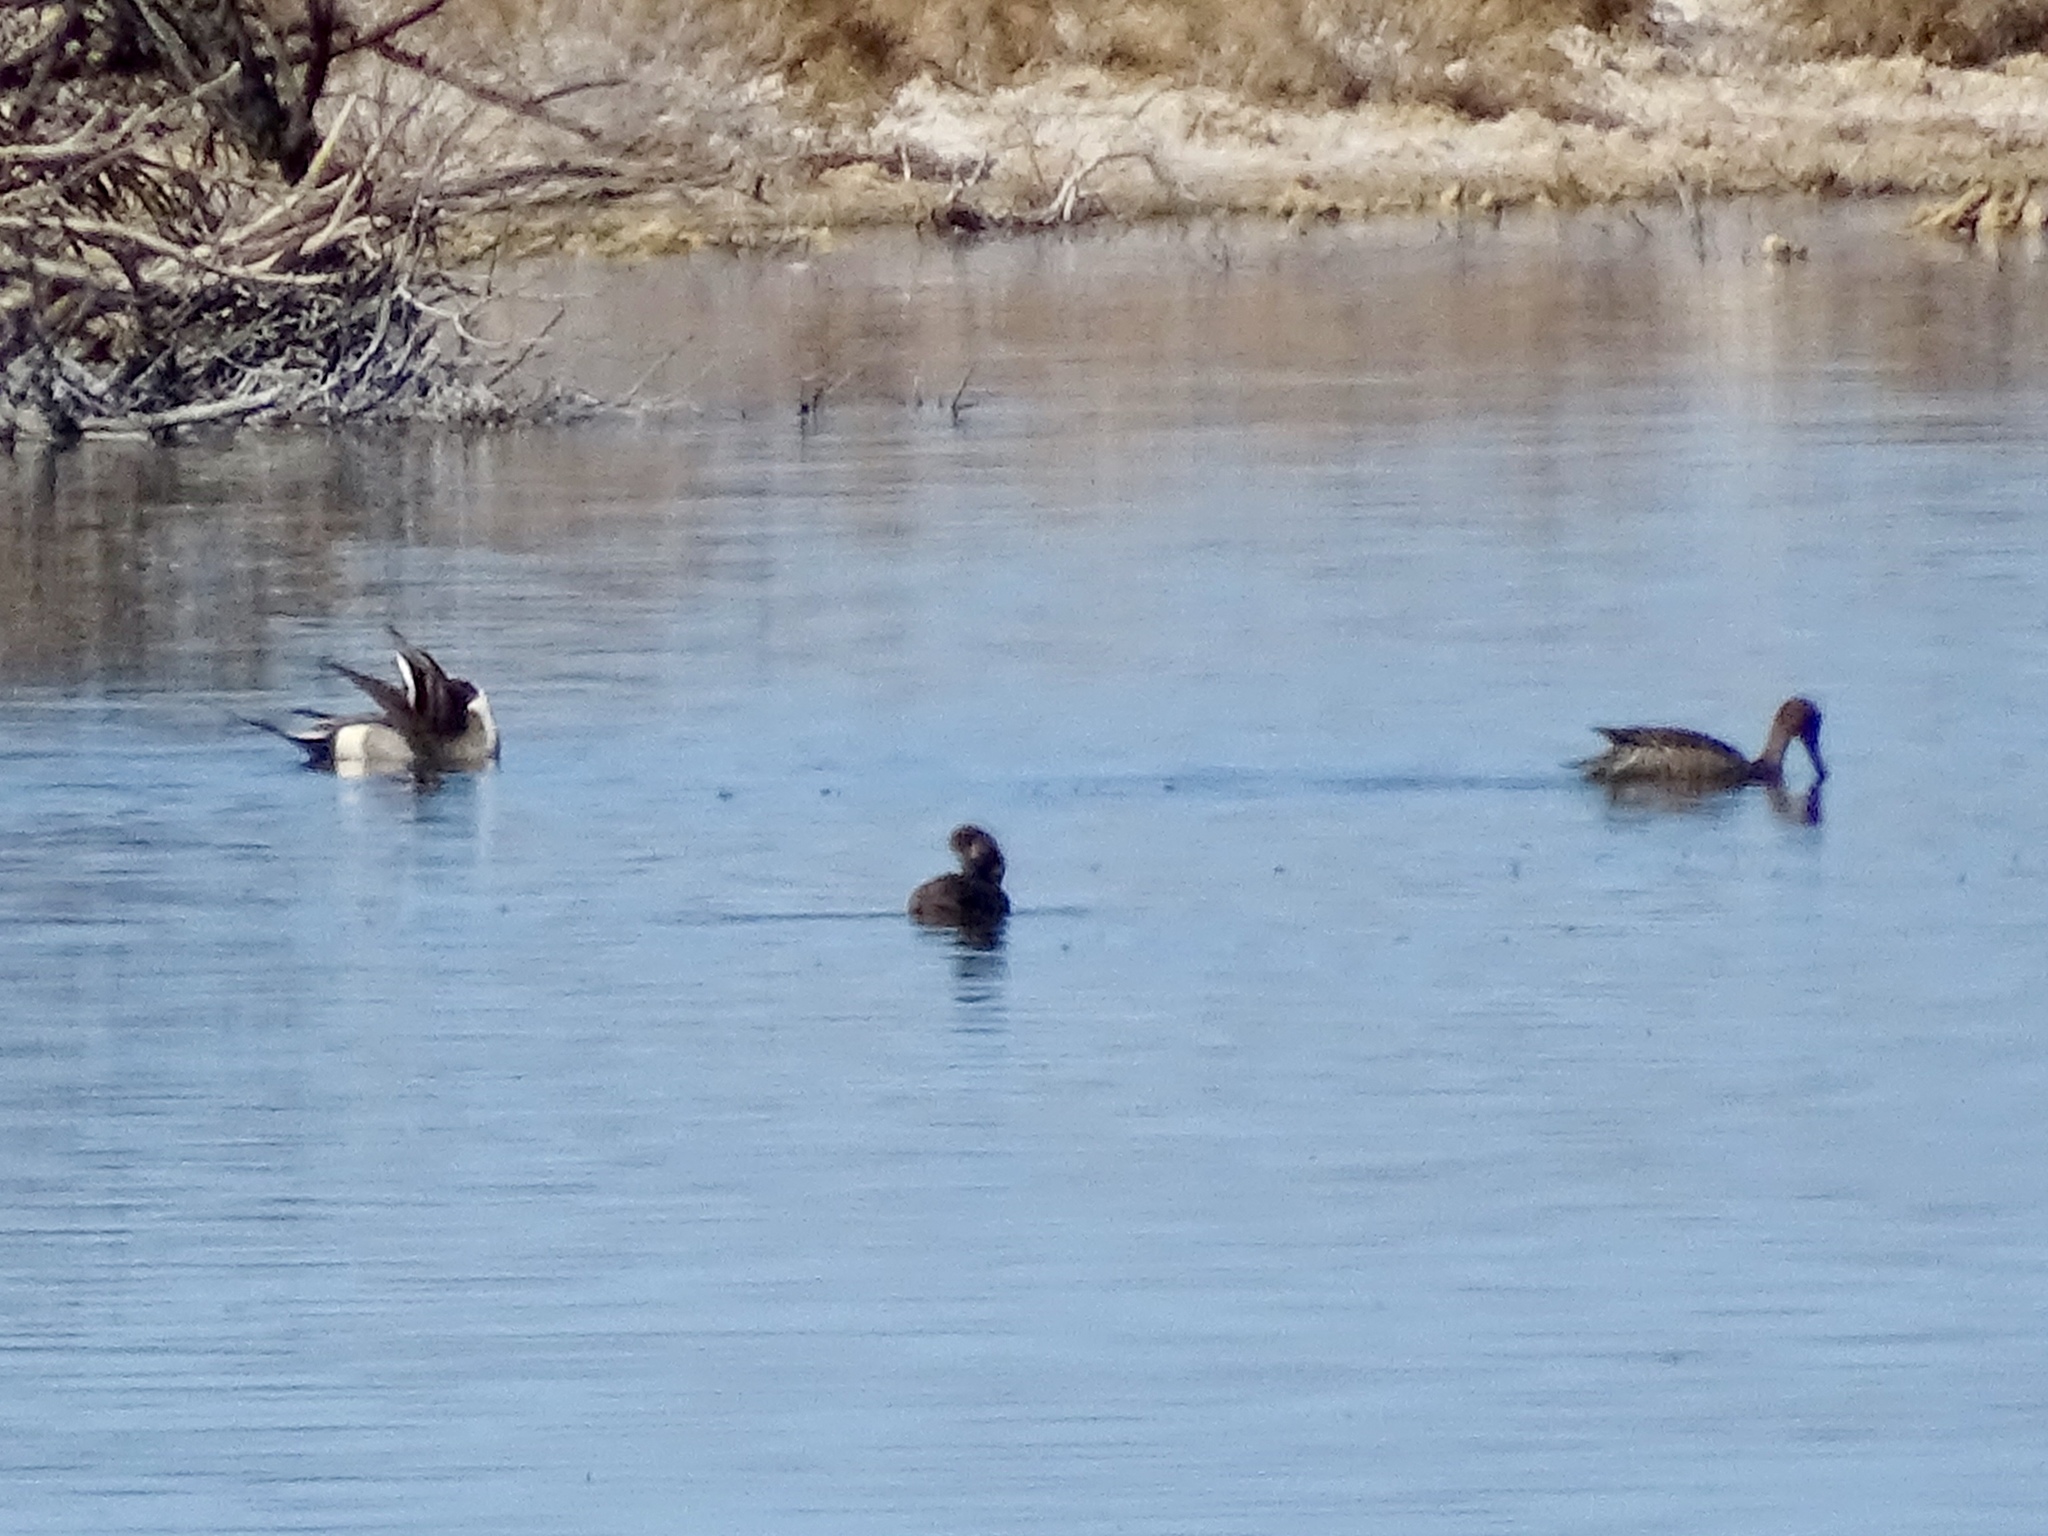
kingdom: Animalia
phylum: Chordata
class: Aves
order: Anseriformes
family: Anatidae
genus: Anas
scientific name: Anas acuta
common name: Northern pintail
